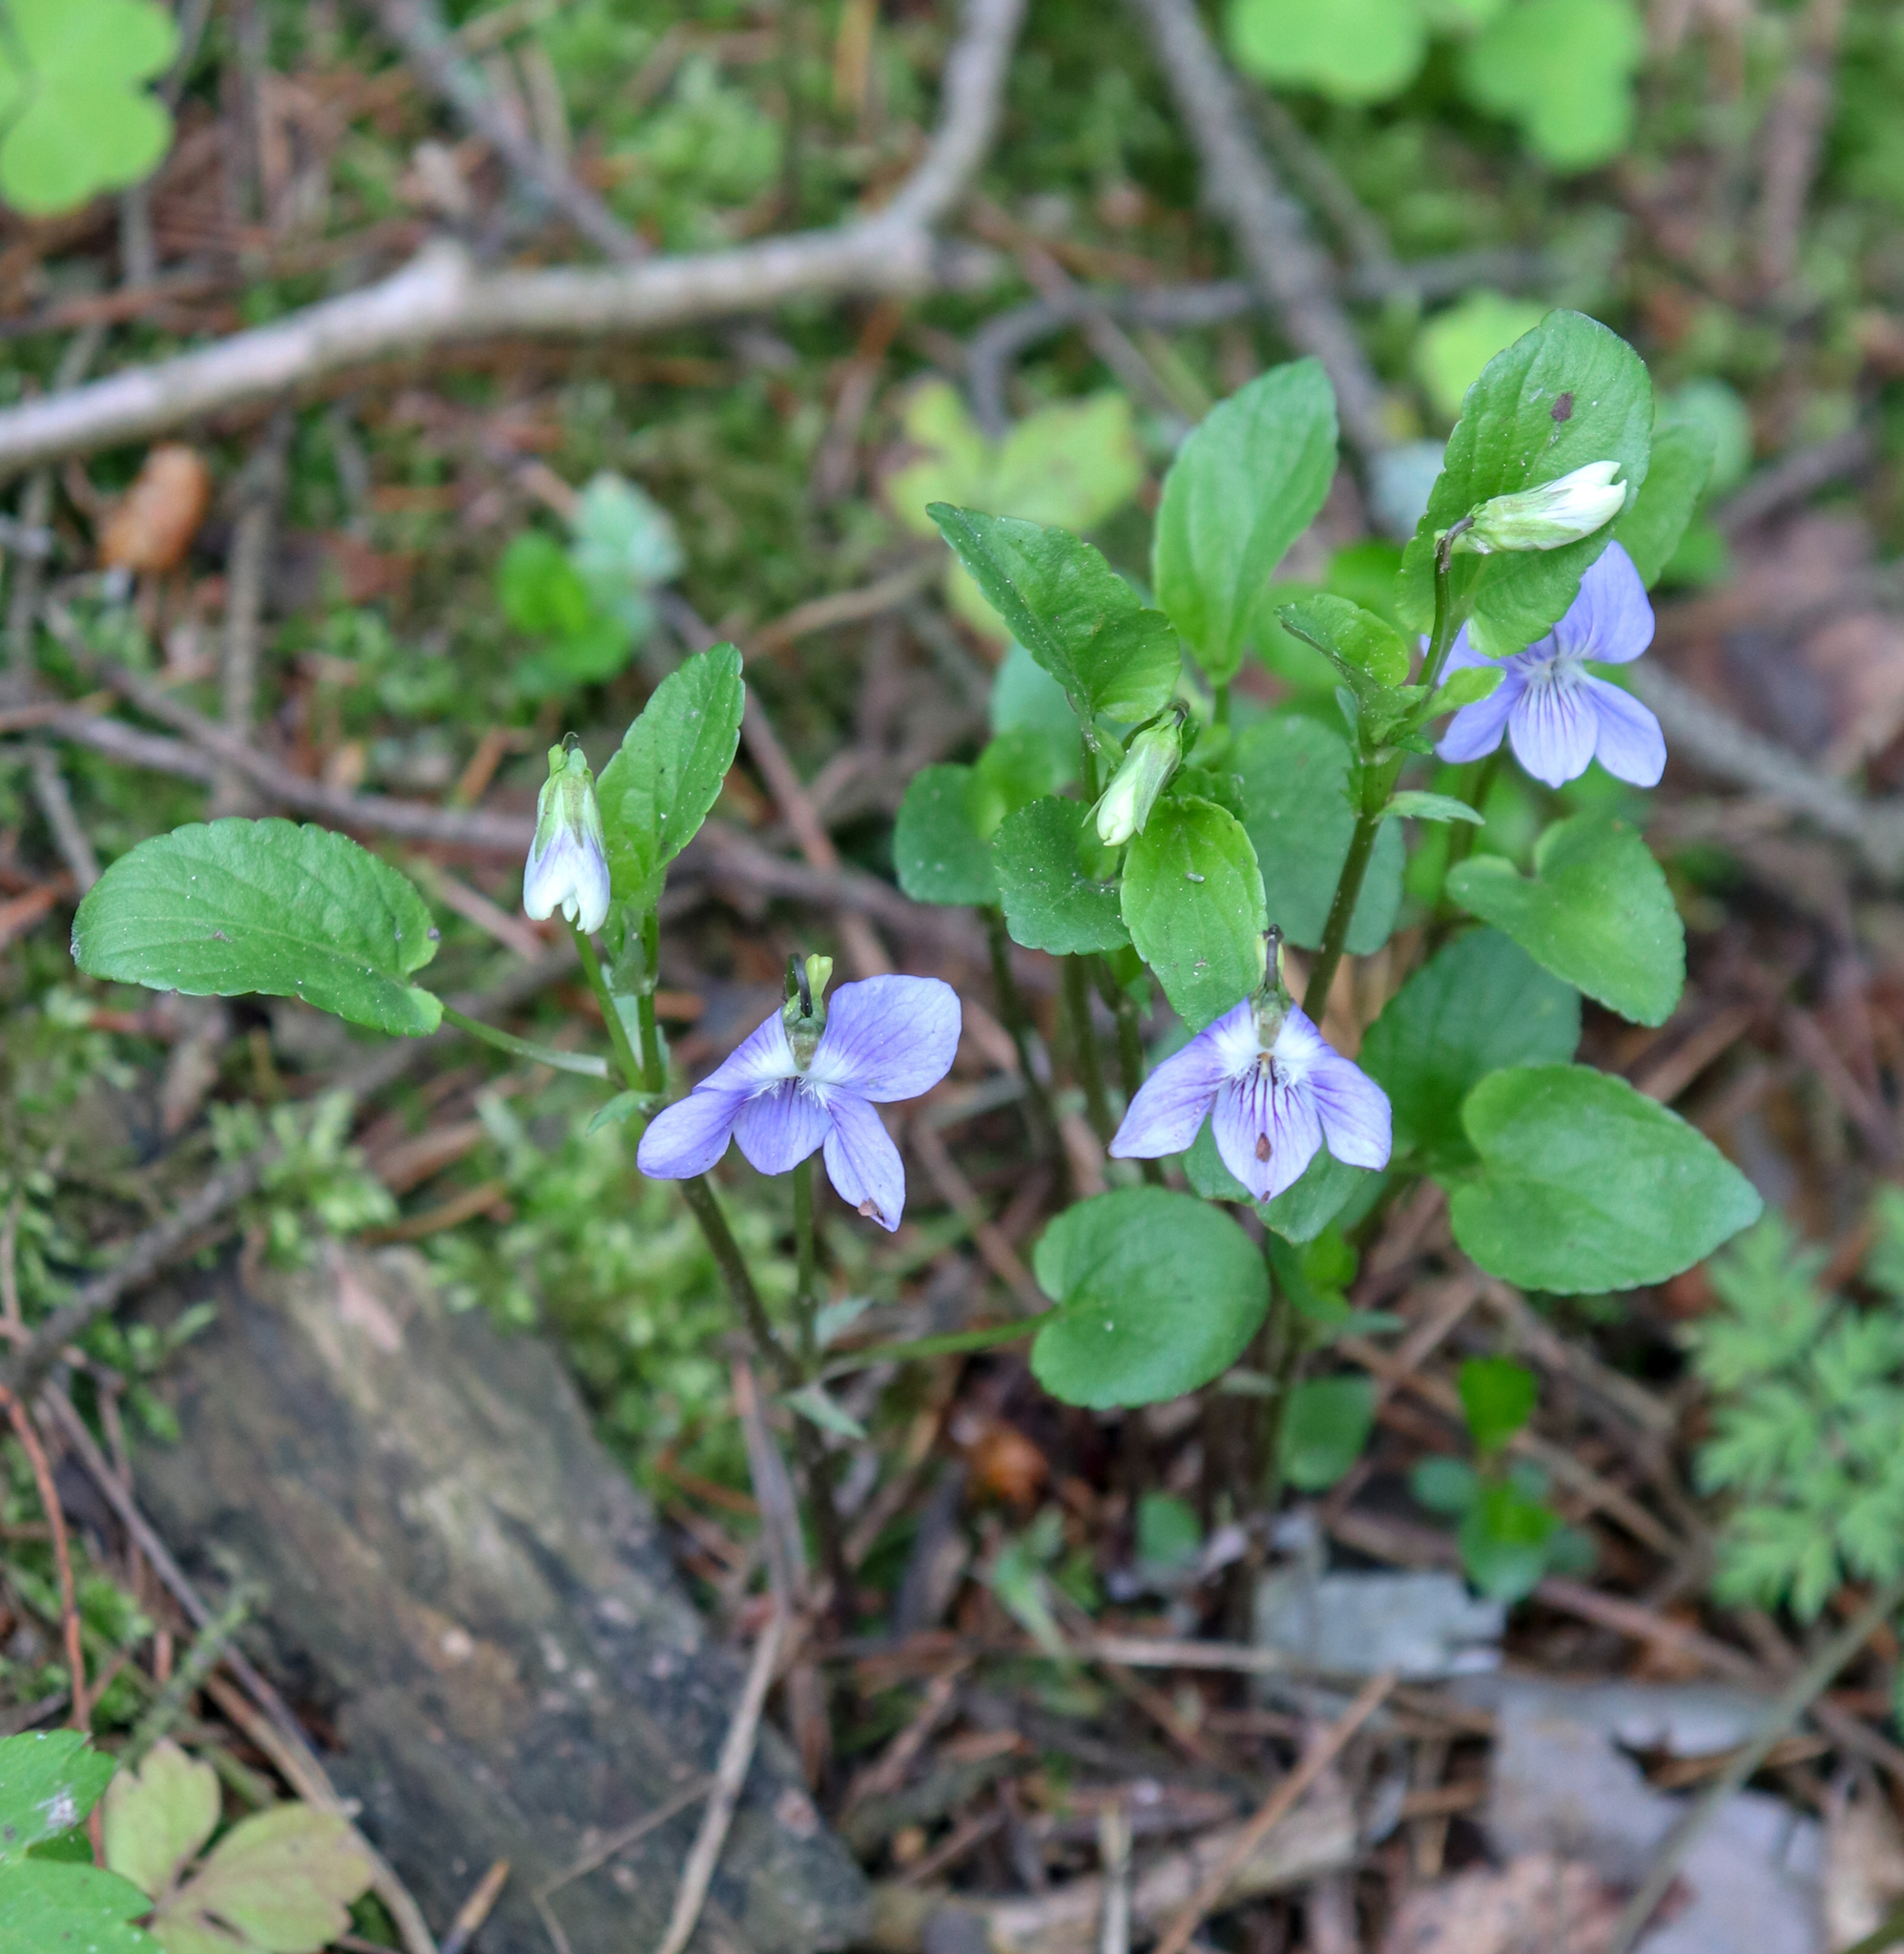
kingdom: Plantae
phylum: Tracheophyta
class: Magnoliopsida
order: Malpighiales
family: Violaceae
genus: Viola
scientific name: Viola canina
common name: Heath dog-violet
